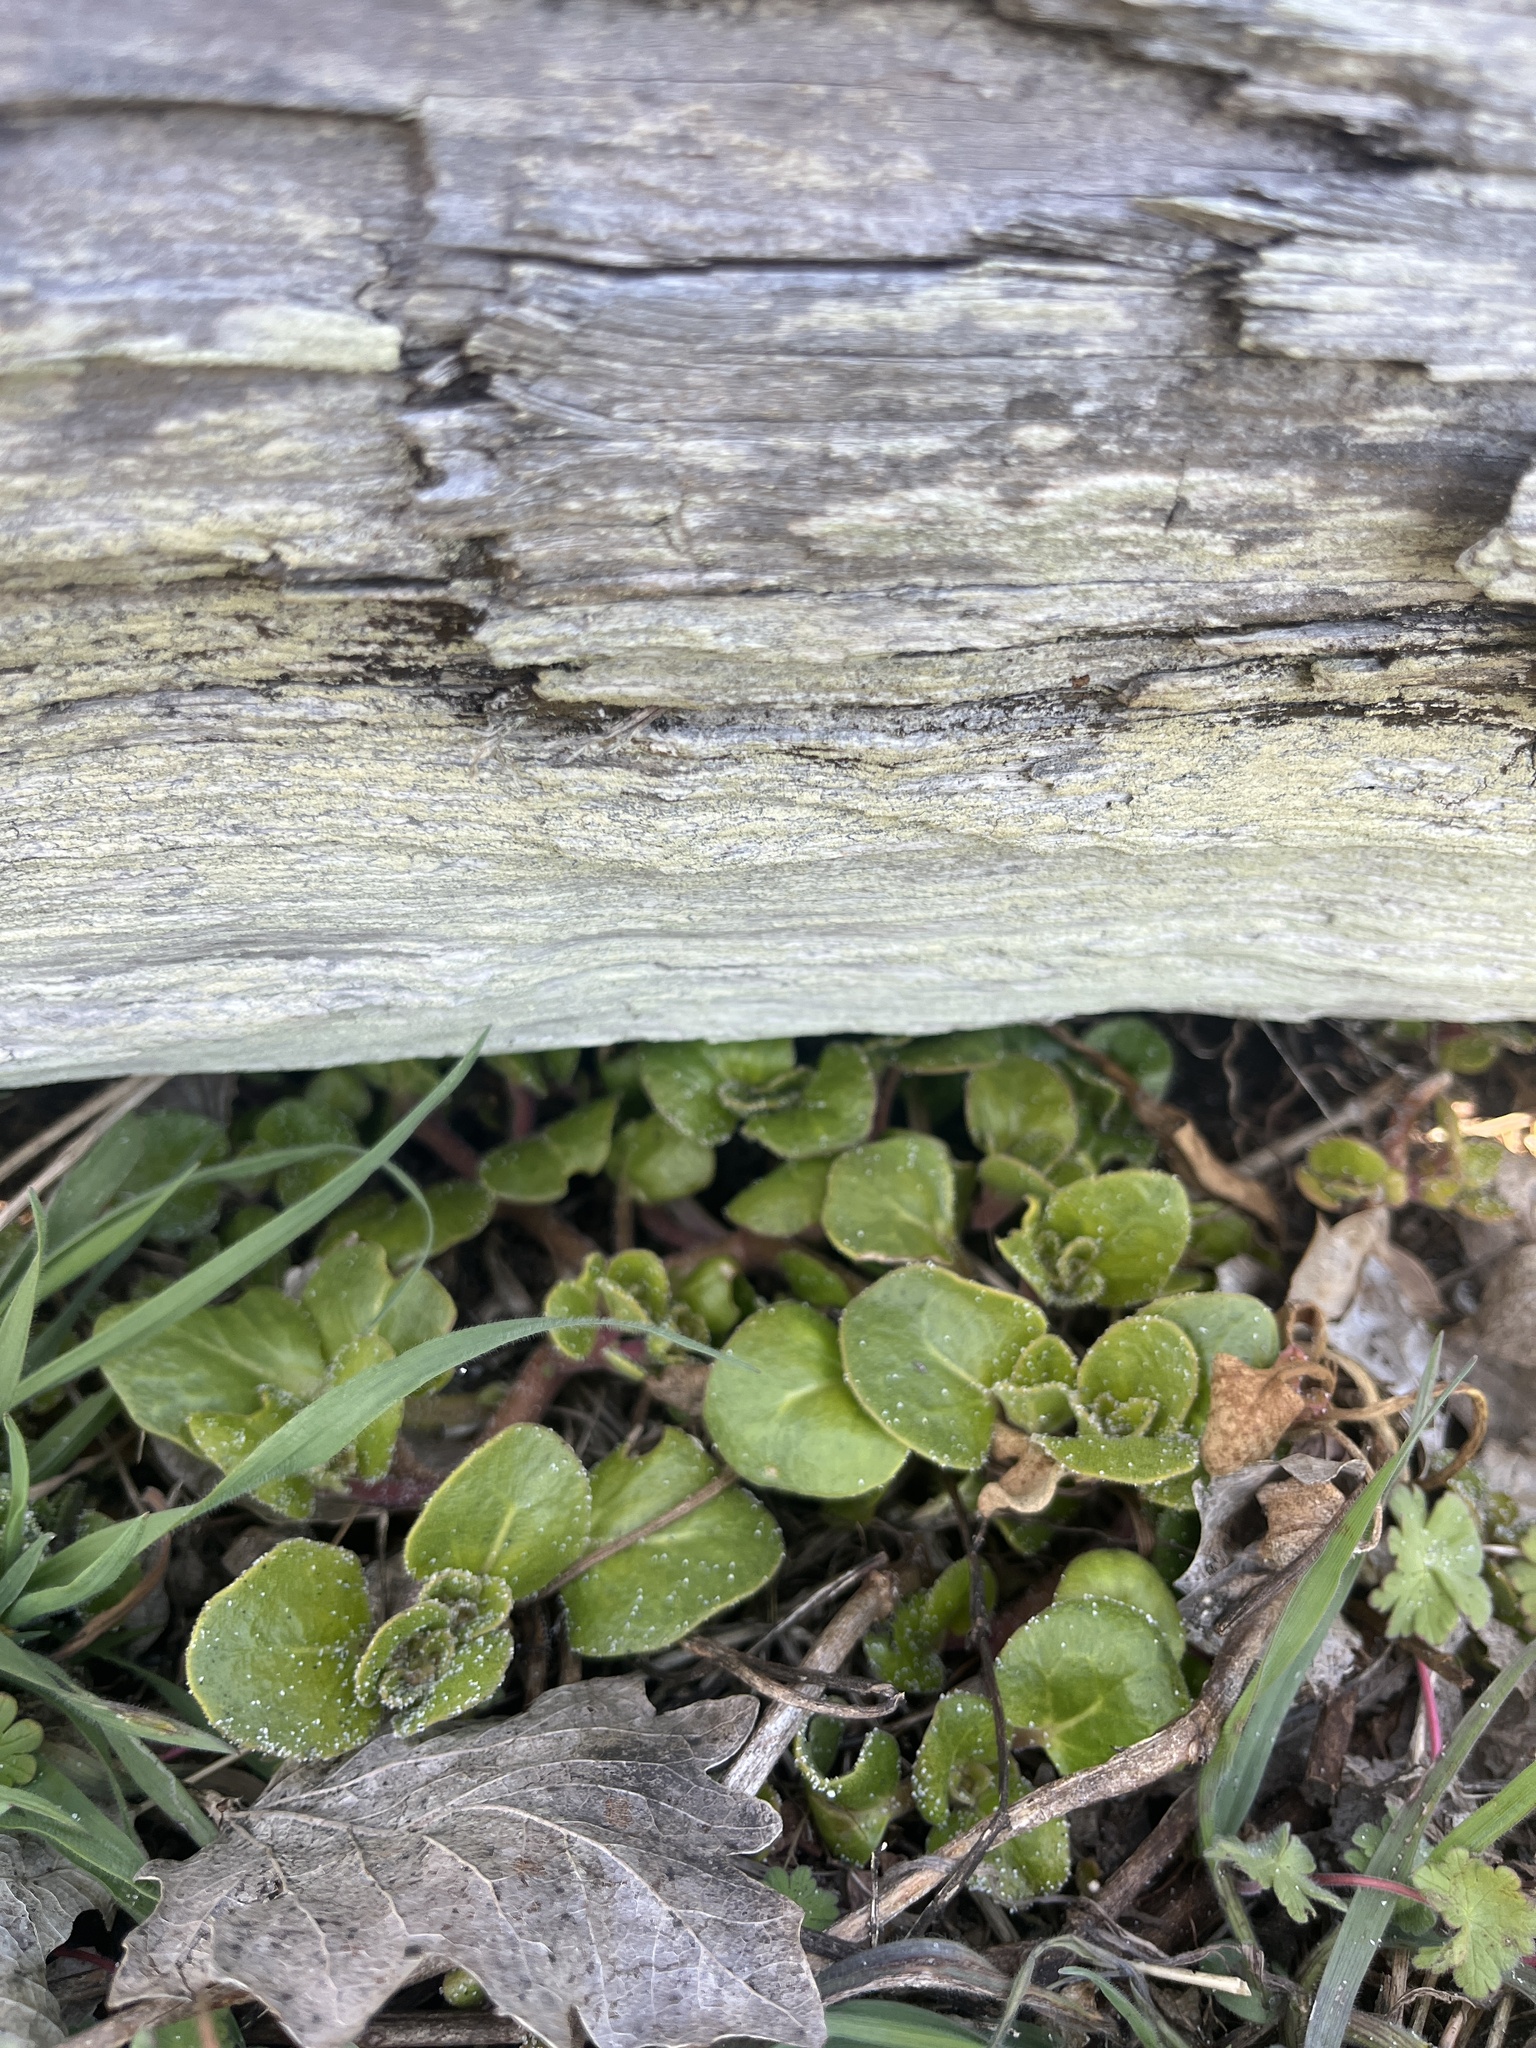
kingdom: Plantae
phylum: Tracheophyta
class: Magnoliopsida
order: Caryophyllales
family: Nyctaginaceae
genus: Abronia
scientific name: Abronia latifolia
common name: Yellow sand-verbena
